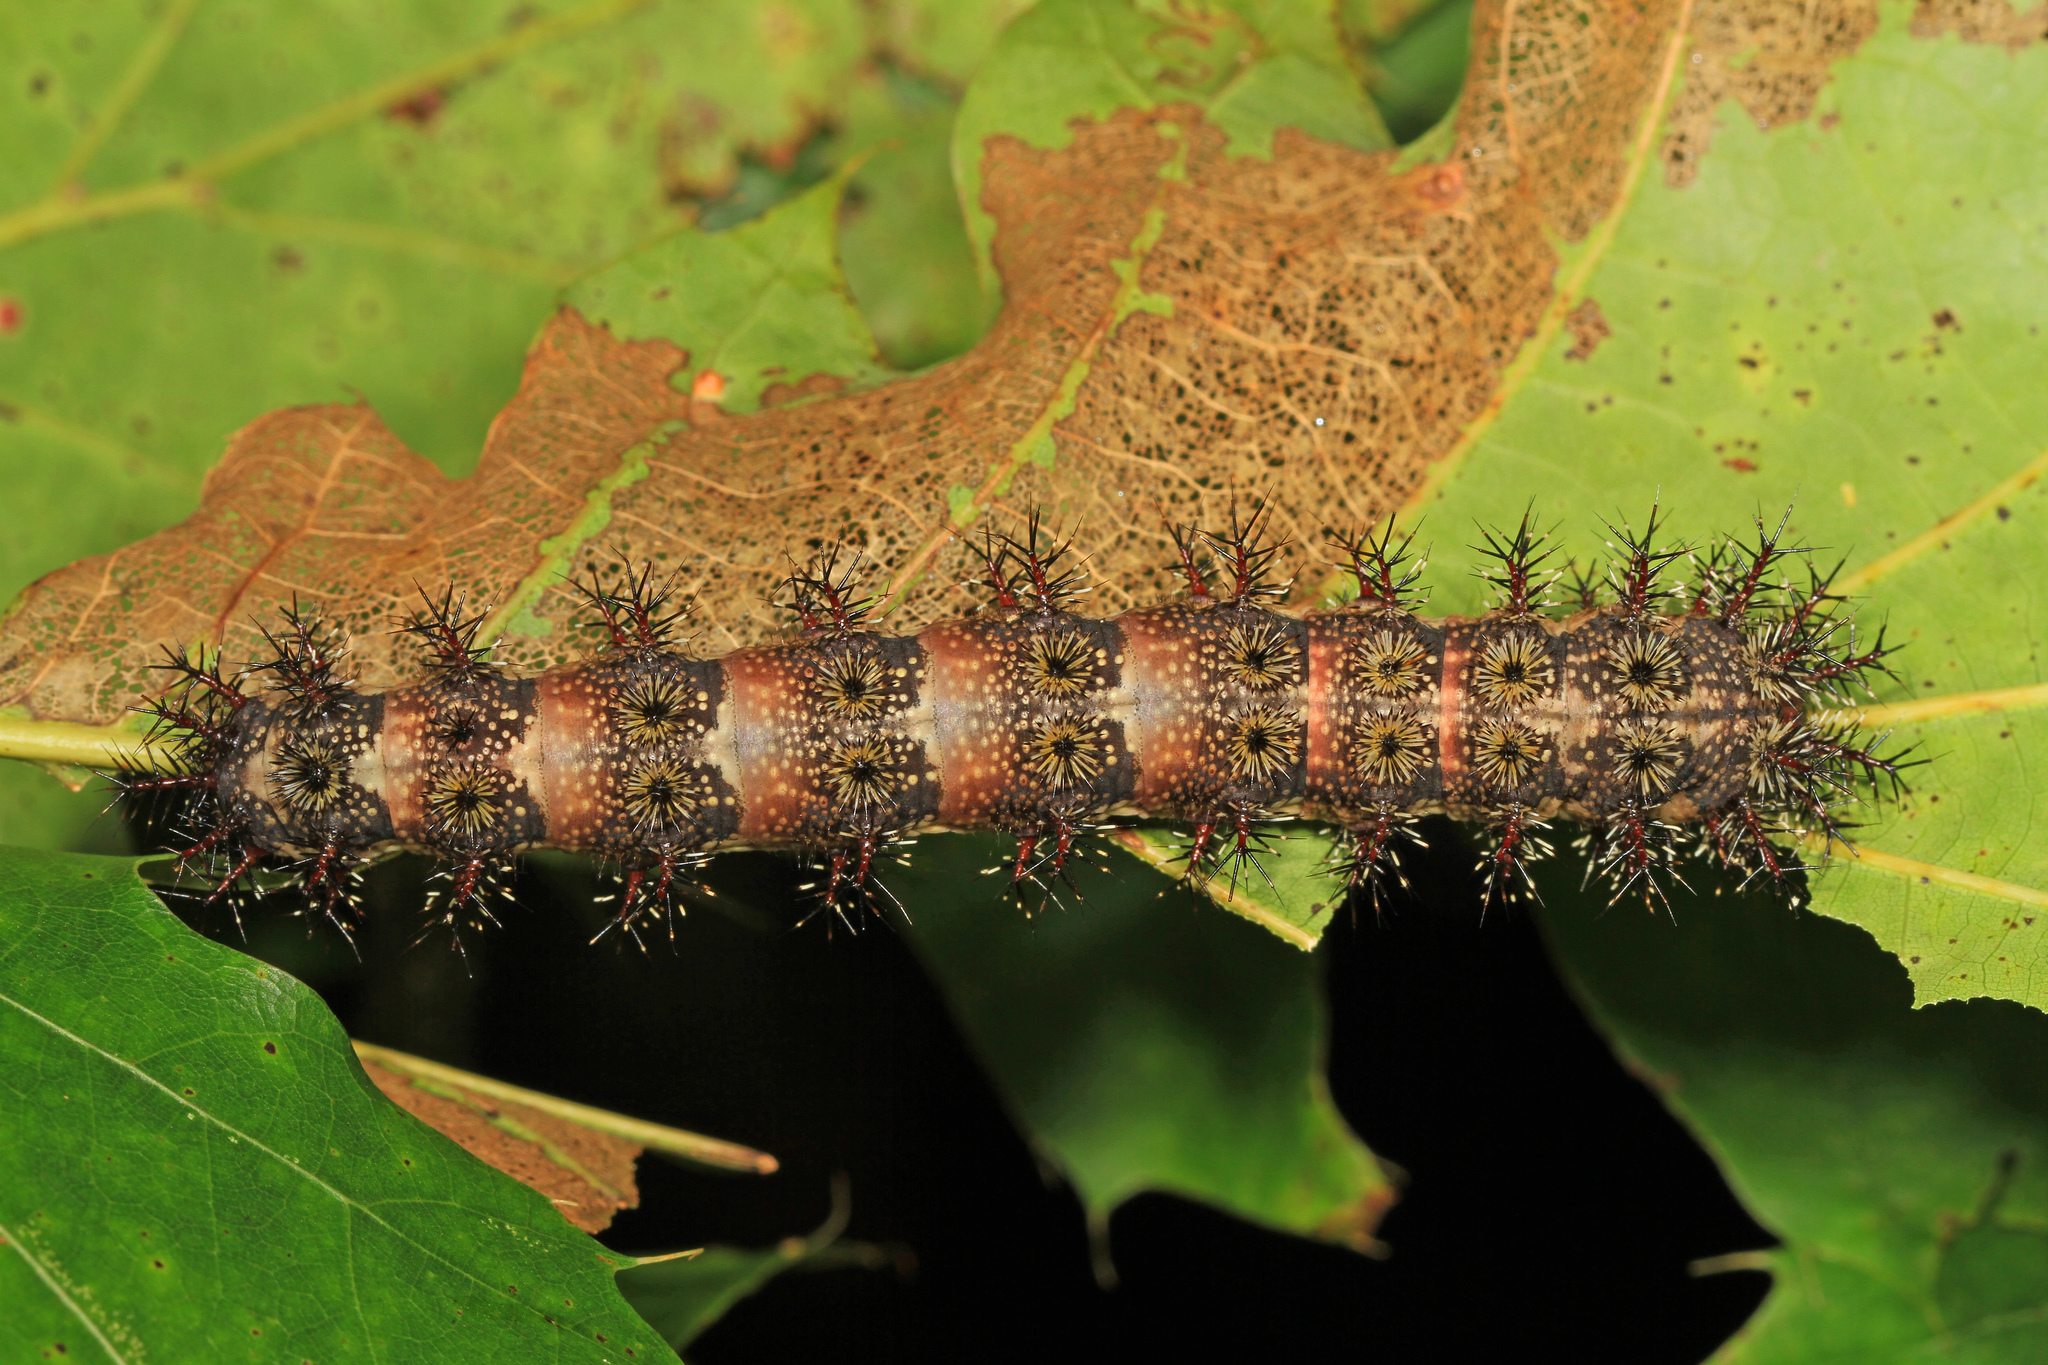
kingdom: Animalia
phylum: Arthropoda
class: Insecta
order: Lepidoptera
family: Saturniidae
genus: Hemileuca
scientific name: Hemileuca maia
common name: Eastern buckmoth
